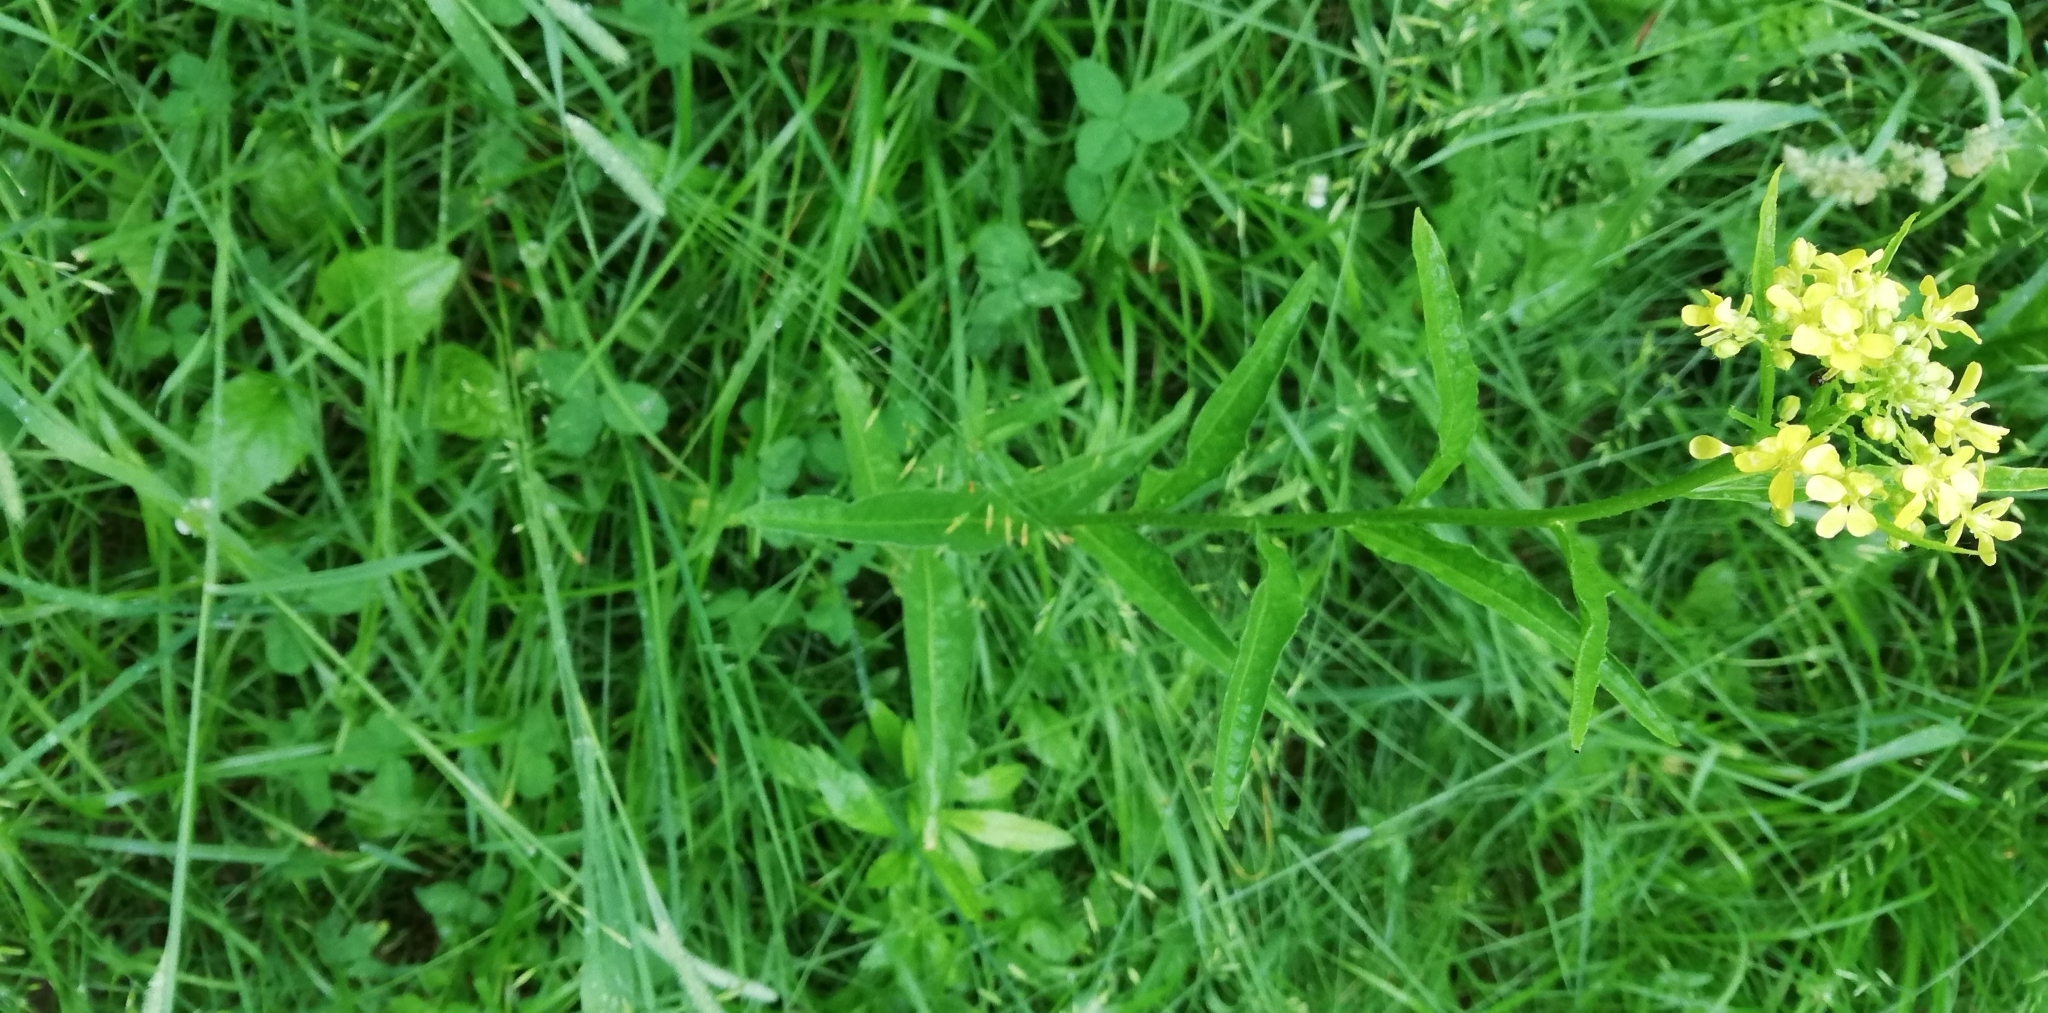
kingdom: Plantae
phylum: Tracheophyta
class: Magnoliopsida
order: Brassicales
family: Brassicaceae
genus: Bunias
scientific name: Bunias orientalis
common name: Warty-cabbage
